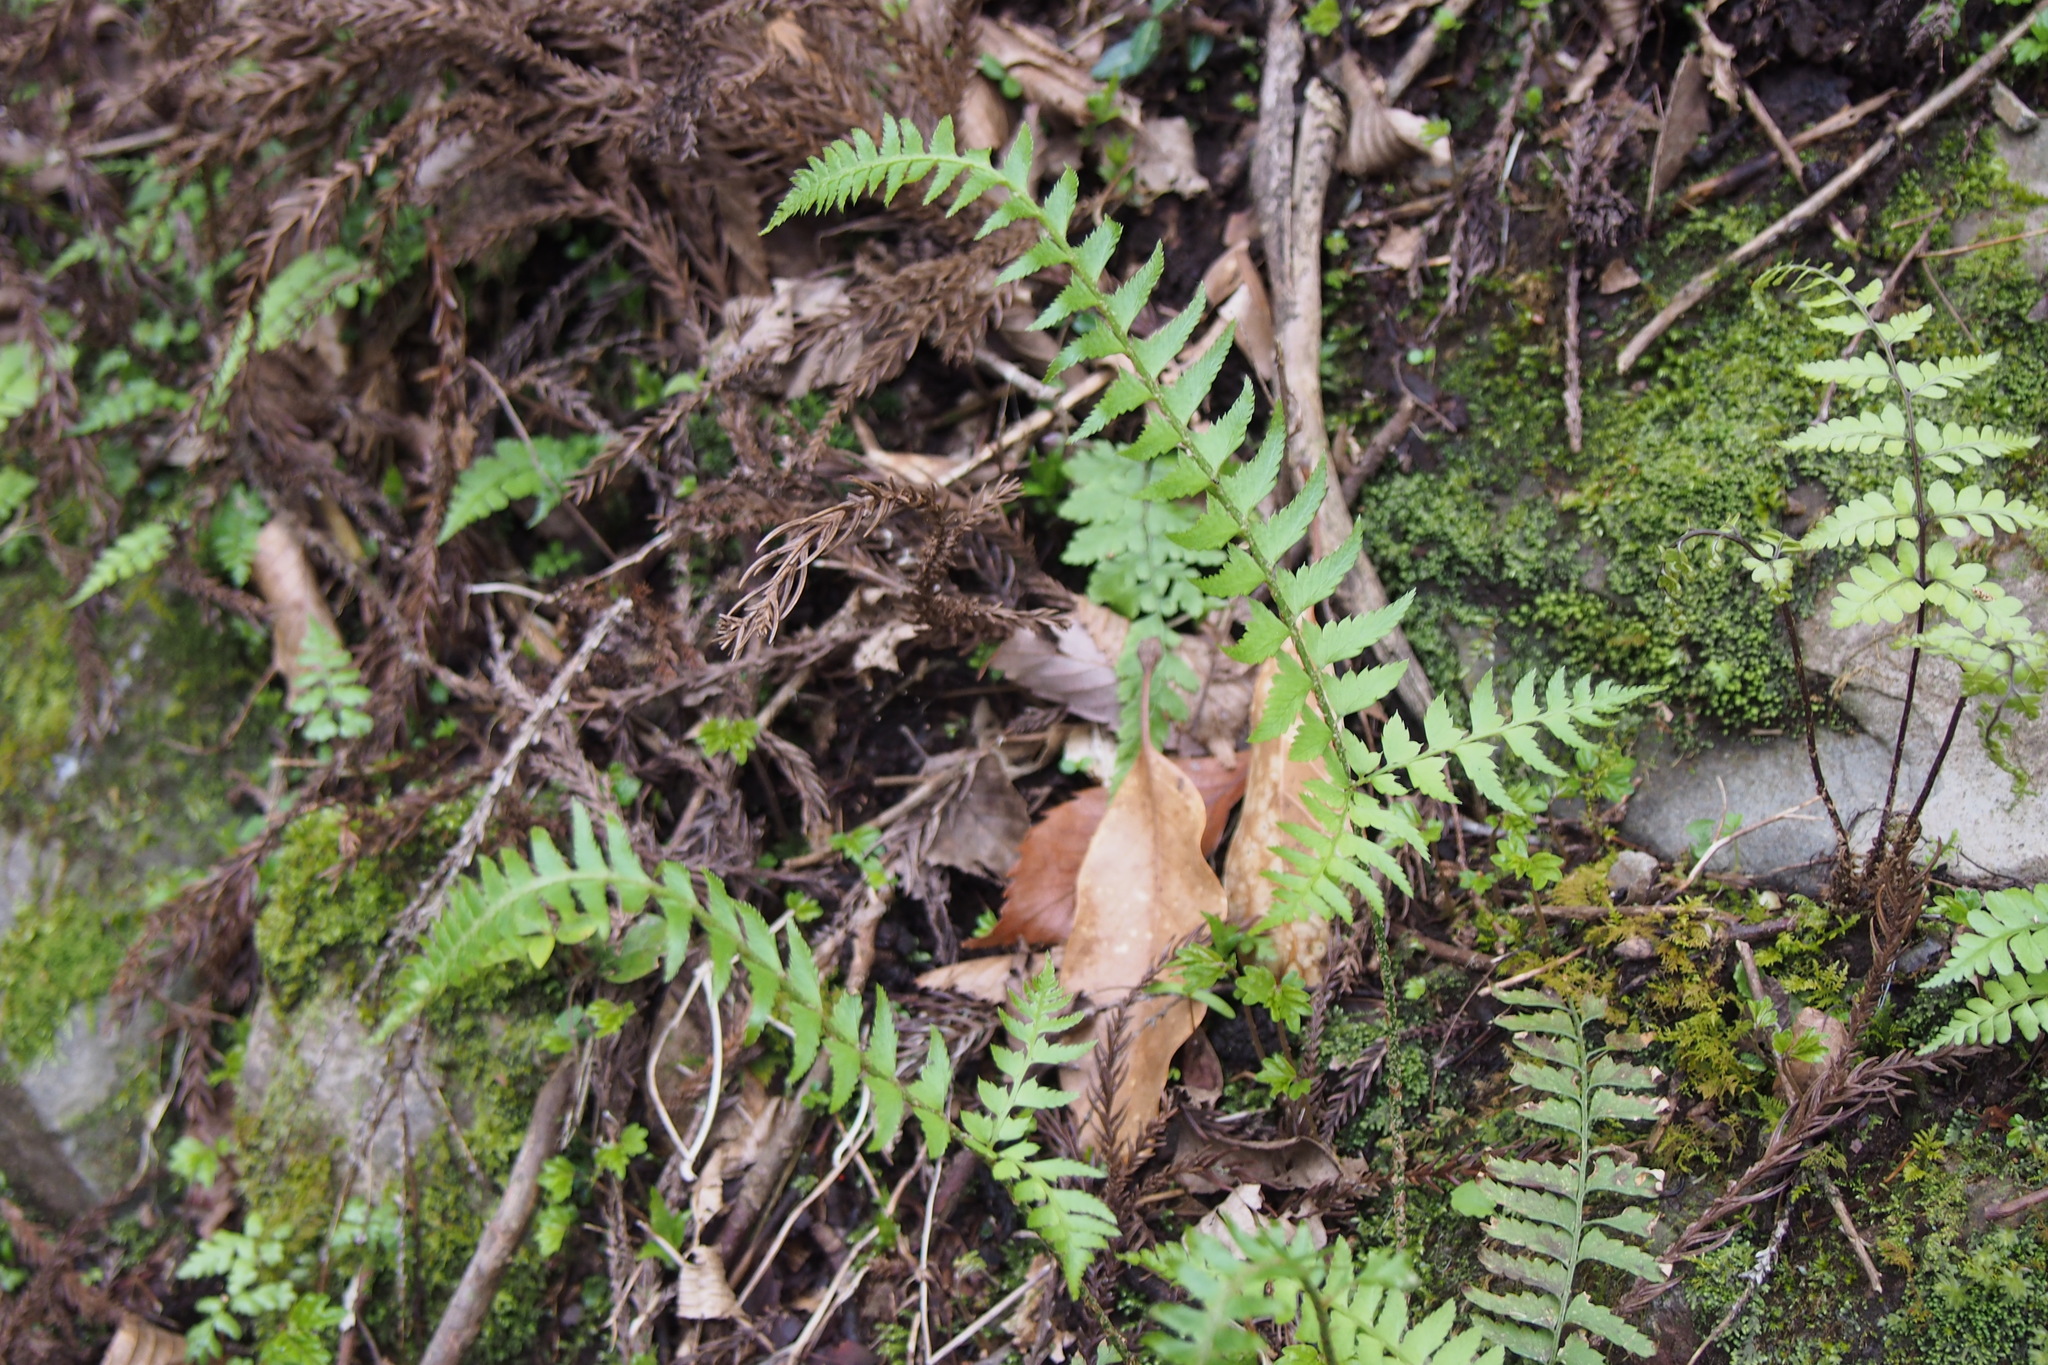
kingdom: Plantae
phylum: Tracheophyta
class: Polypodiopsida
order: Polypodiales
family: Dryopteridaceae
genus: Polystichum
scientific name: Polystichum tripteron
